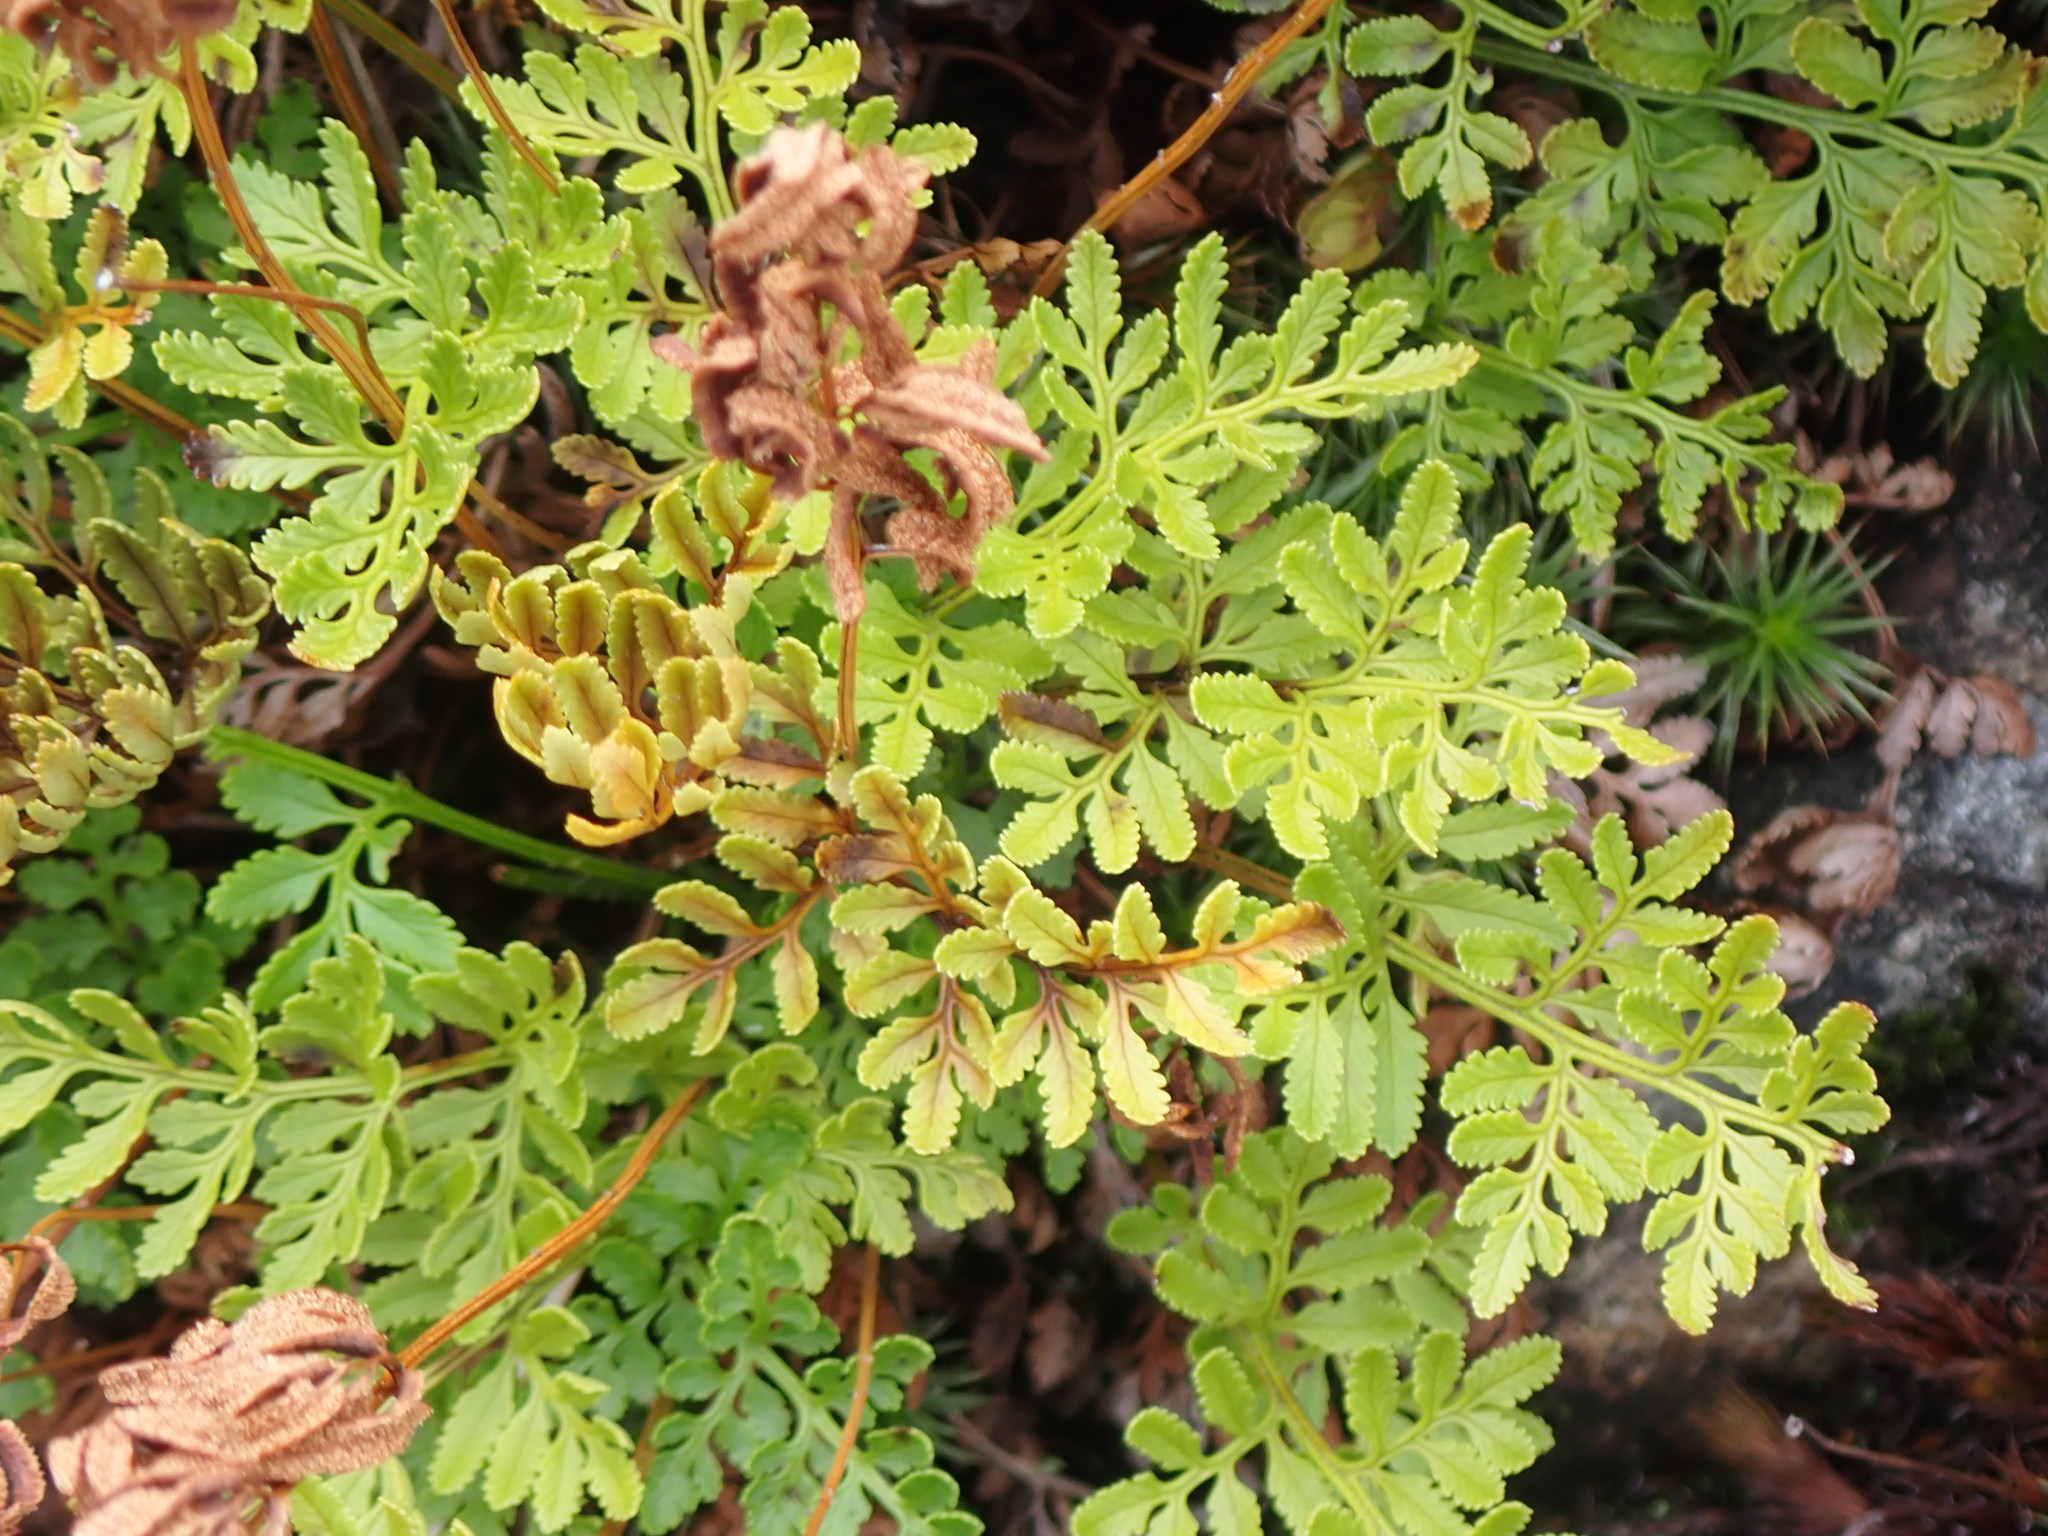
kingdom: Plantae
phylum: Tracheophyta
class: Polypodiopsida
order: Polypodiales
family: Pteridaceae
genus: Cryptogramma
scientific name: Cryptogramma acrostichoides
